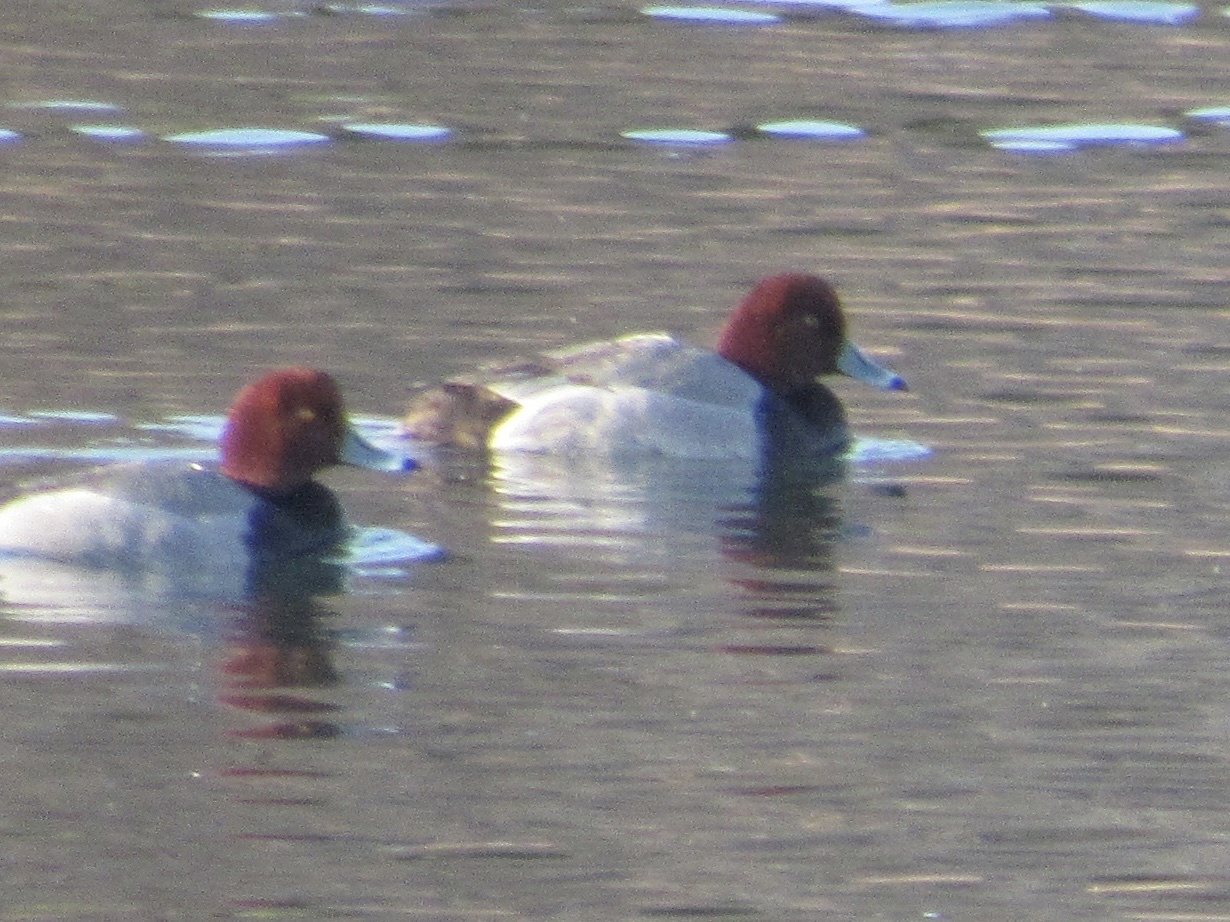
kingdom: Animalia
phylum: Chordata
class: Aves
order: Anseriformes
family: Anatidae
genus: Aythya
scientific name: Aythya americana
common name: Redhead
